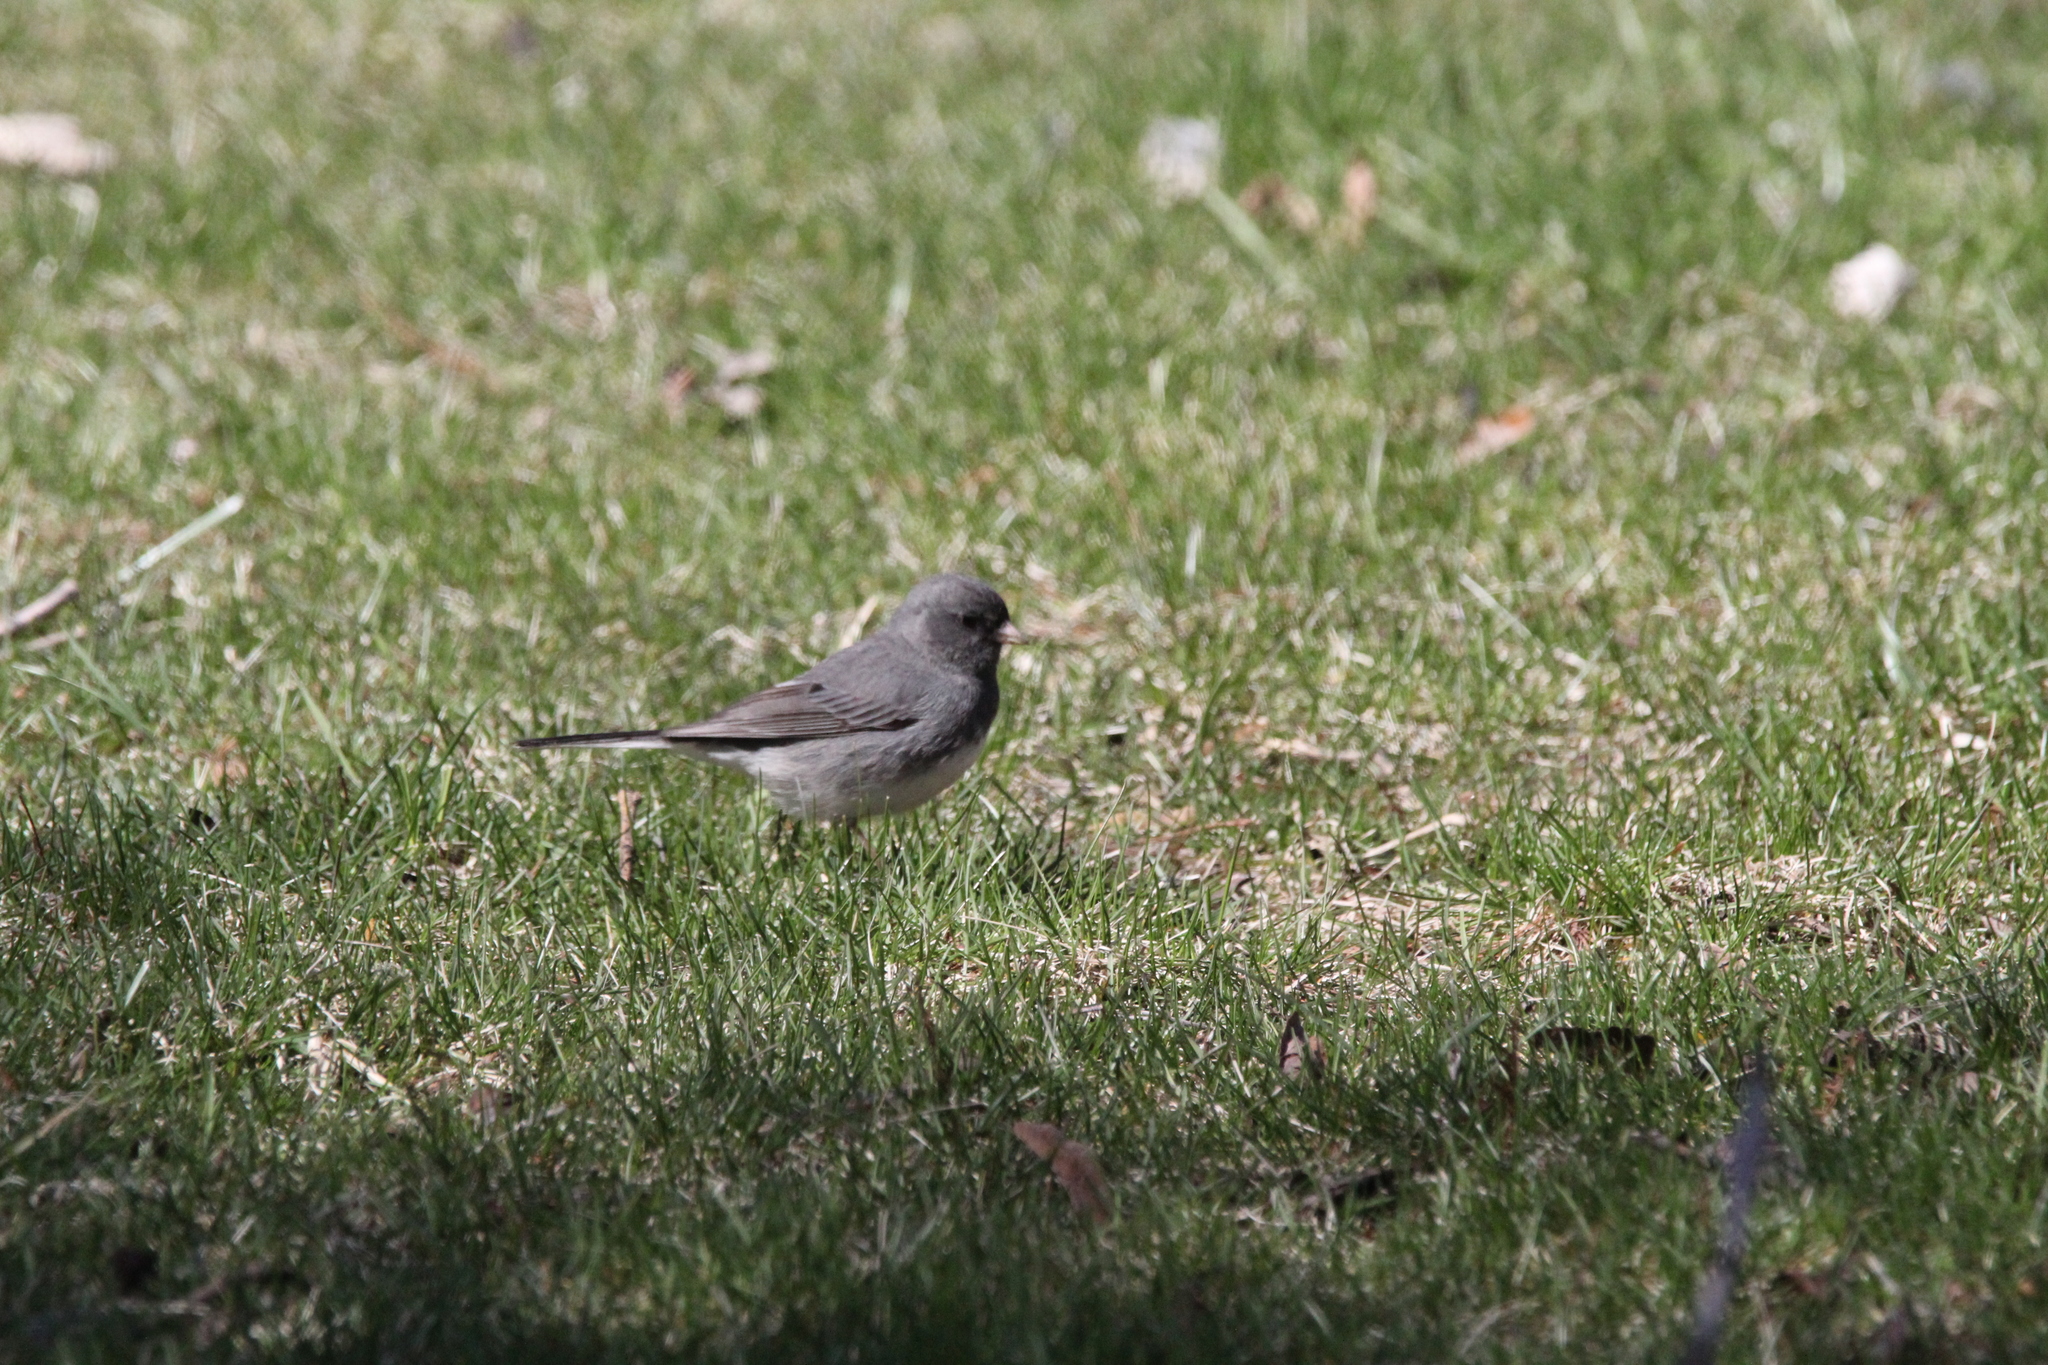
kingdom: Animalia
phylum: Chordata
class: Aves
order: Passeriformes
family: Passerellidae
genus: Junco
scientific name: Junco hyemalis
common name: Dark-eyed junco
